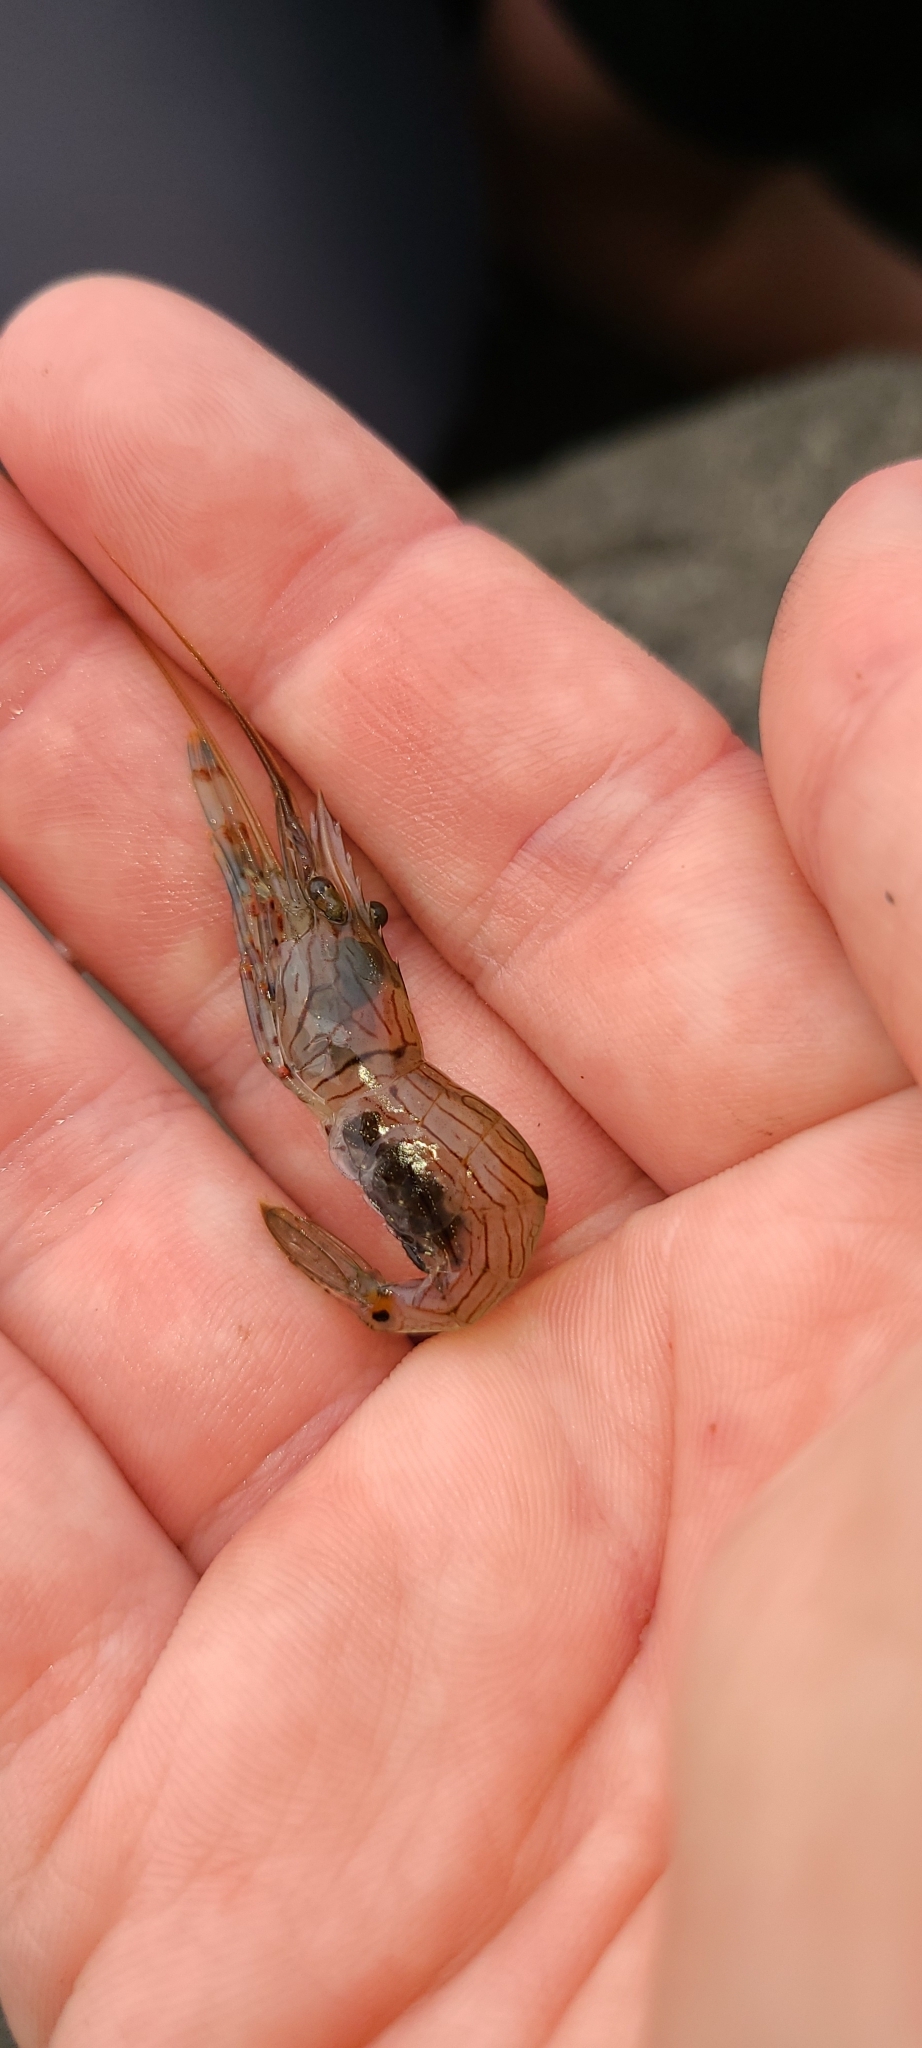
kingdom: Animalia
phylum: Arthropoda
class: Malacostraca
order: Decapoda
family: Palaemonidae
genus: Palaemon
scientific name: Palaemon affinis
